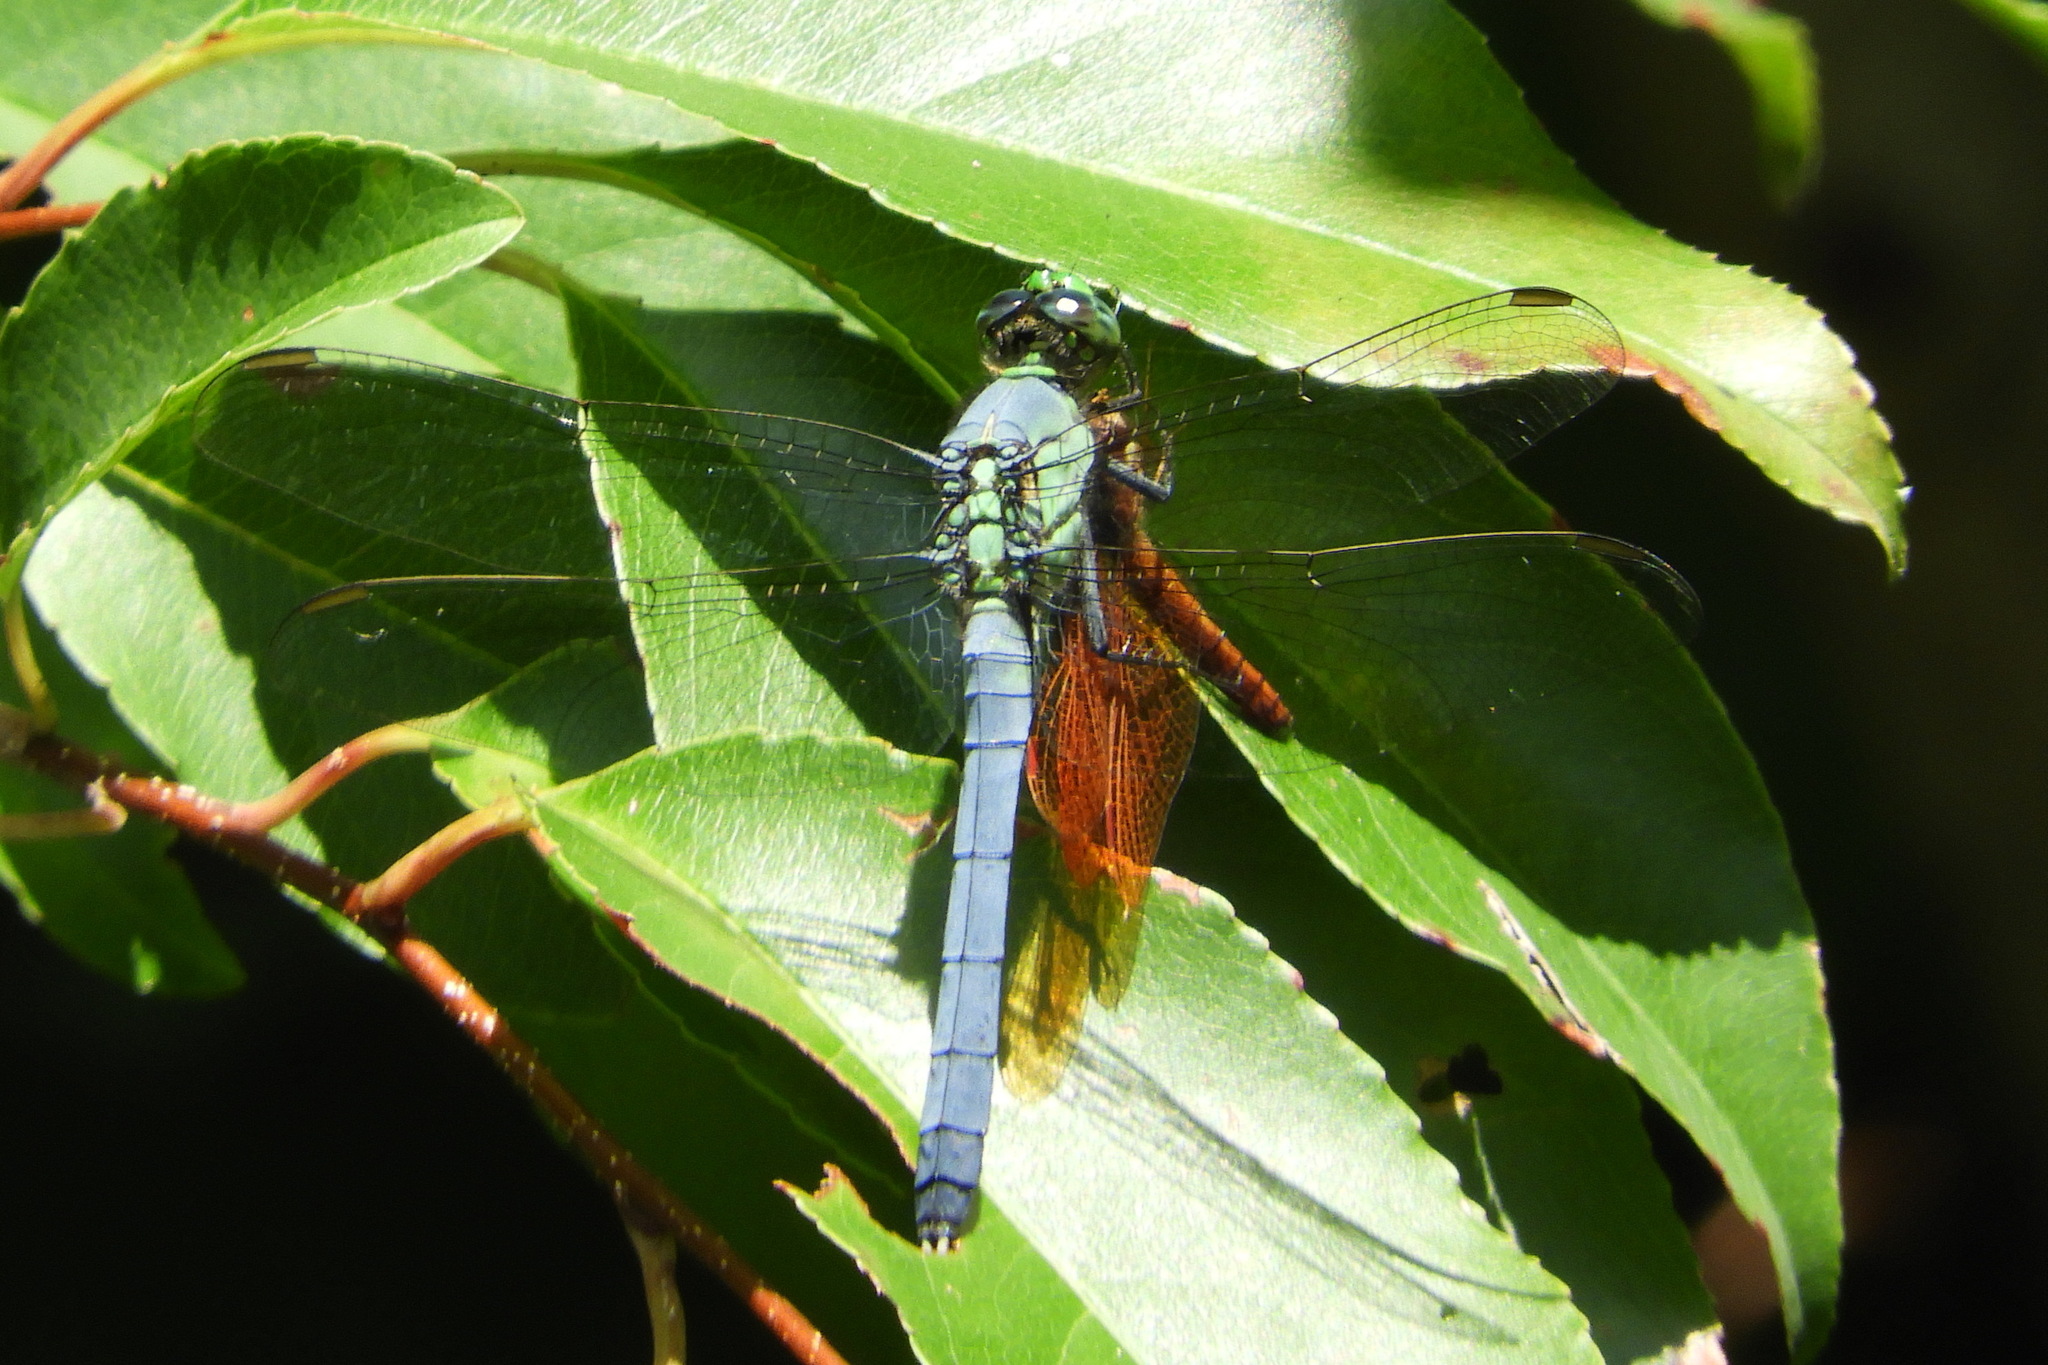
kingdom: Animalia
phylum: Arthropoda
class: Insecta
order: Odonata
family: Libellulidae
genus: Erythemis
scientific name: Erythemis simplicicollis
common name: Eastern pondhawk
